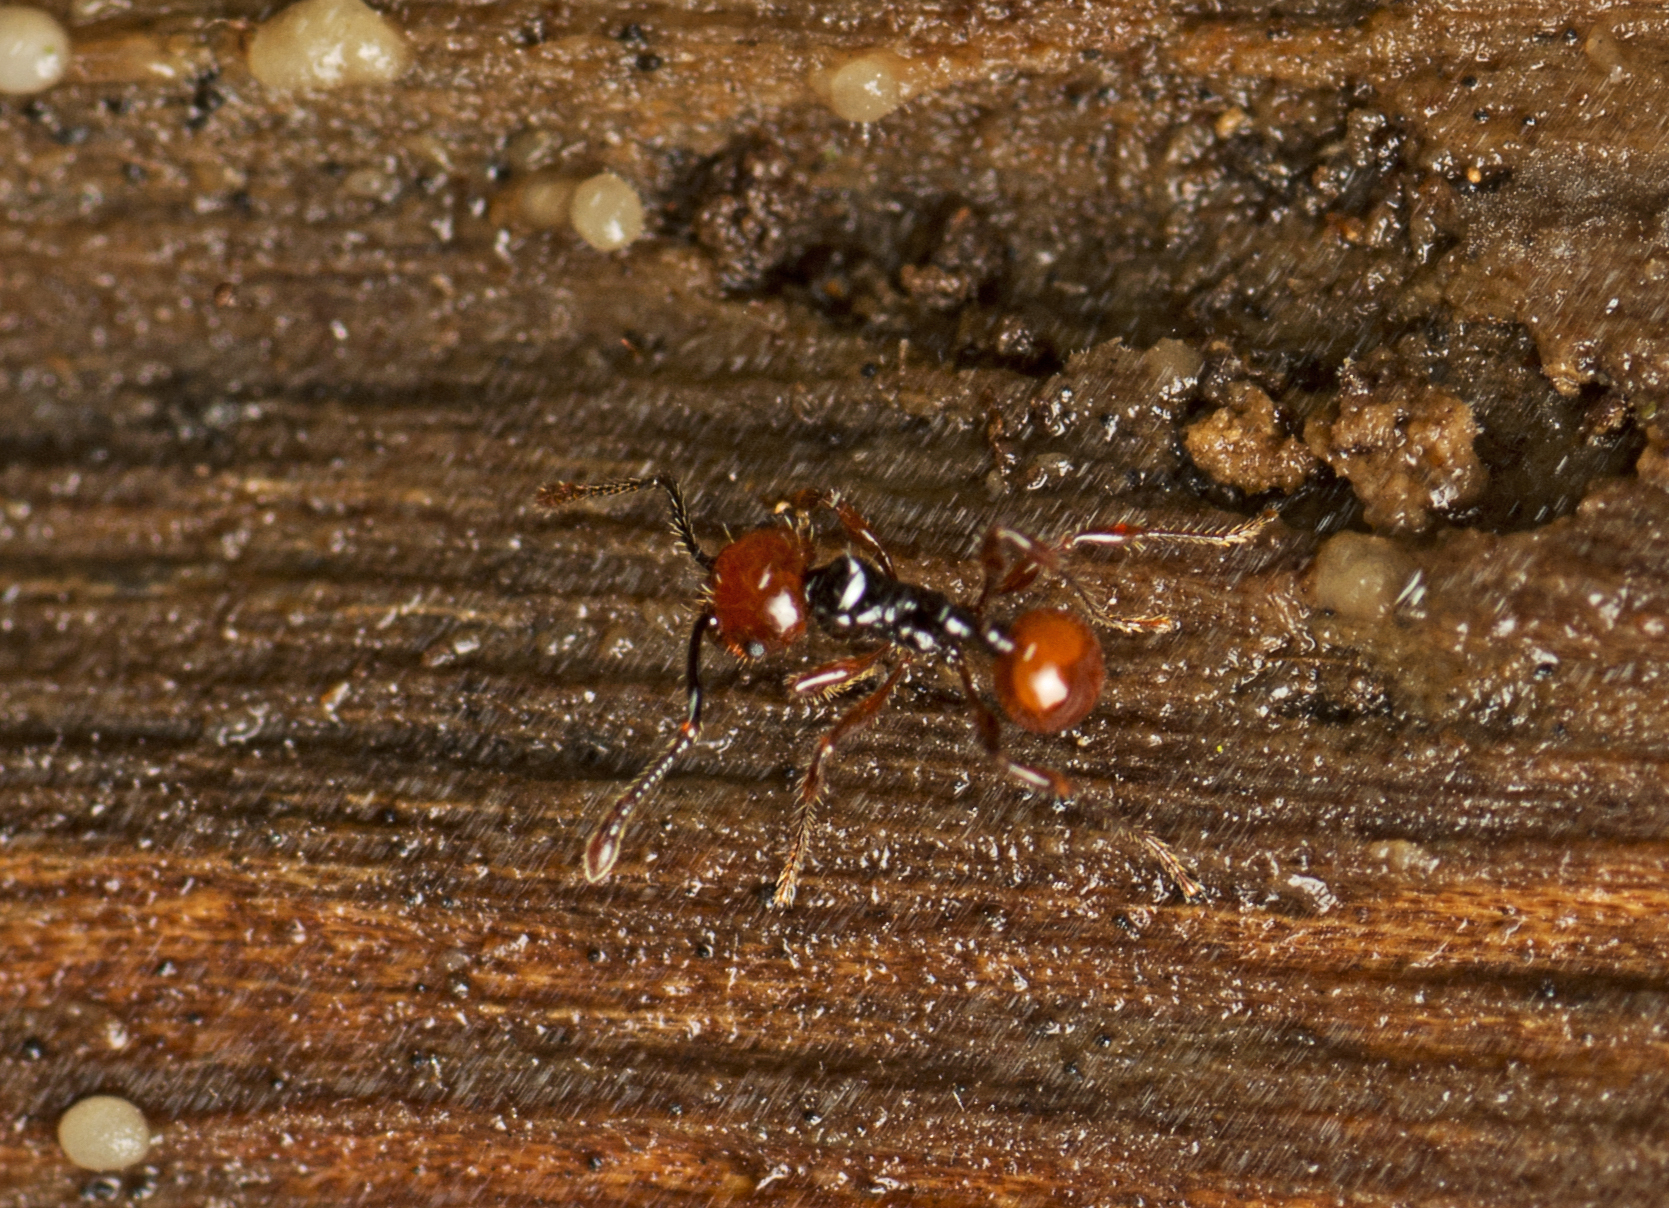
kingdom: Animalia
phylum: Arthropoda
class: Insecta
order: Hymenoptera
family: Formicidae
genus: Pristomyrmex
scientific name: Pristomyrmex quadridentatus
